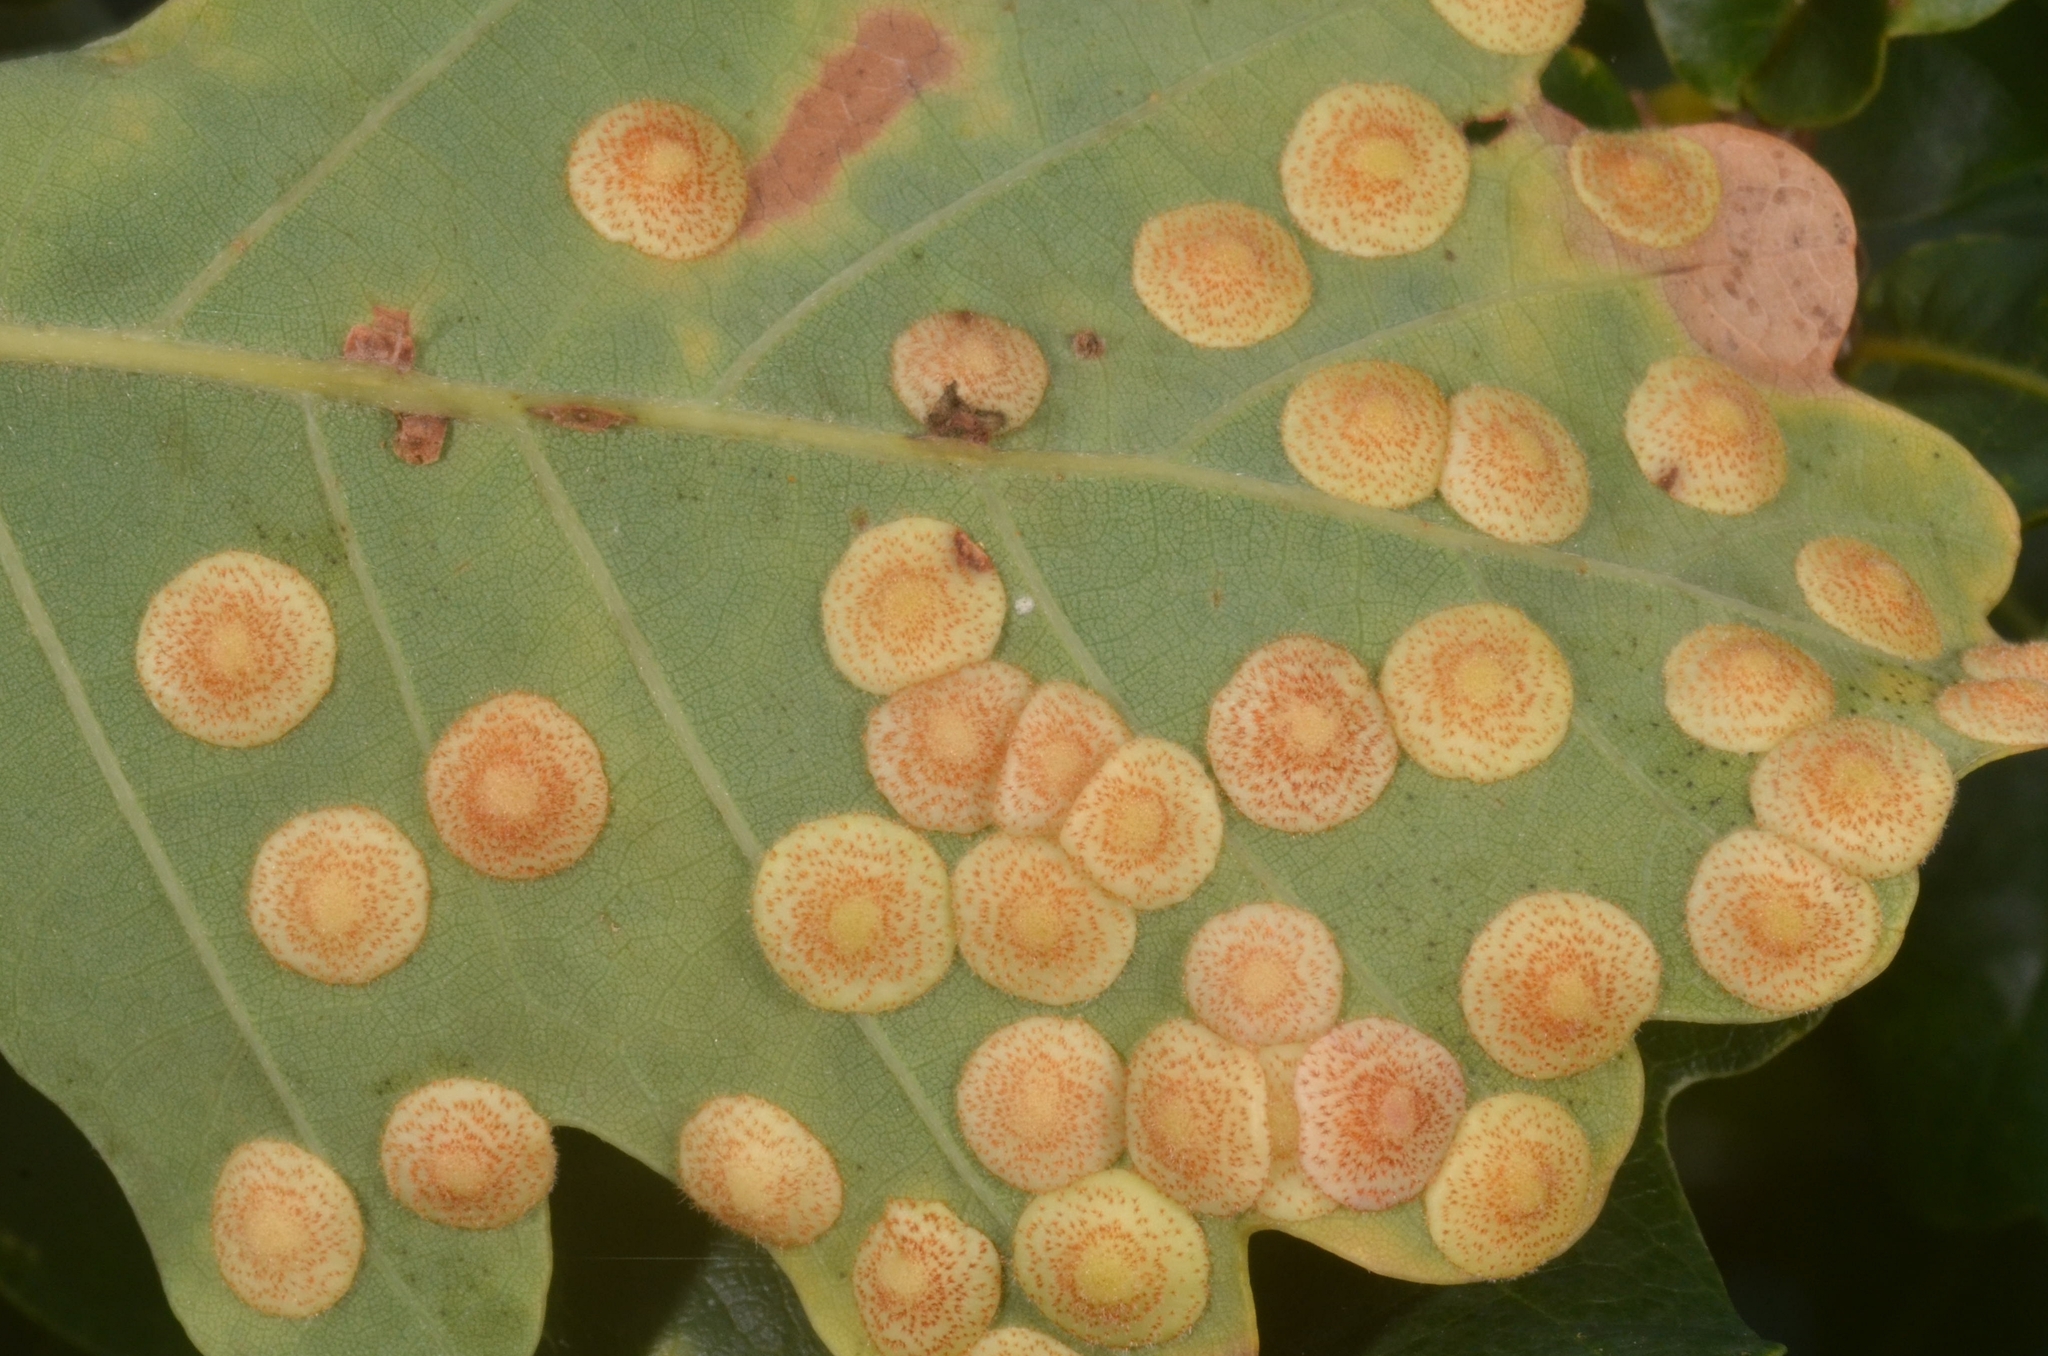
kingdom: Animalia
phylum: Arthropoda
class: Insecta
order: Hymenoptera
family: Cynipidae
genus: Neuroterus
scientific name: Neuroterus quercusbaccarum
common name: Common spangle gall
